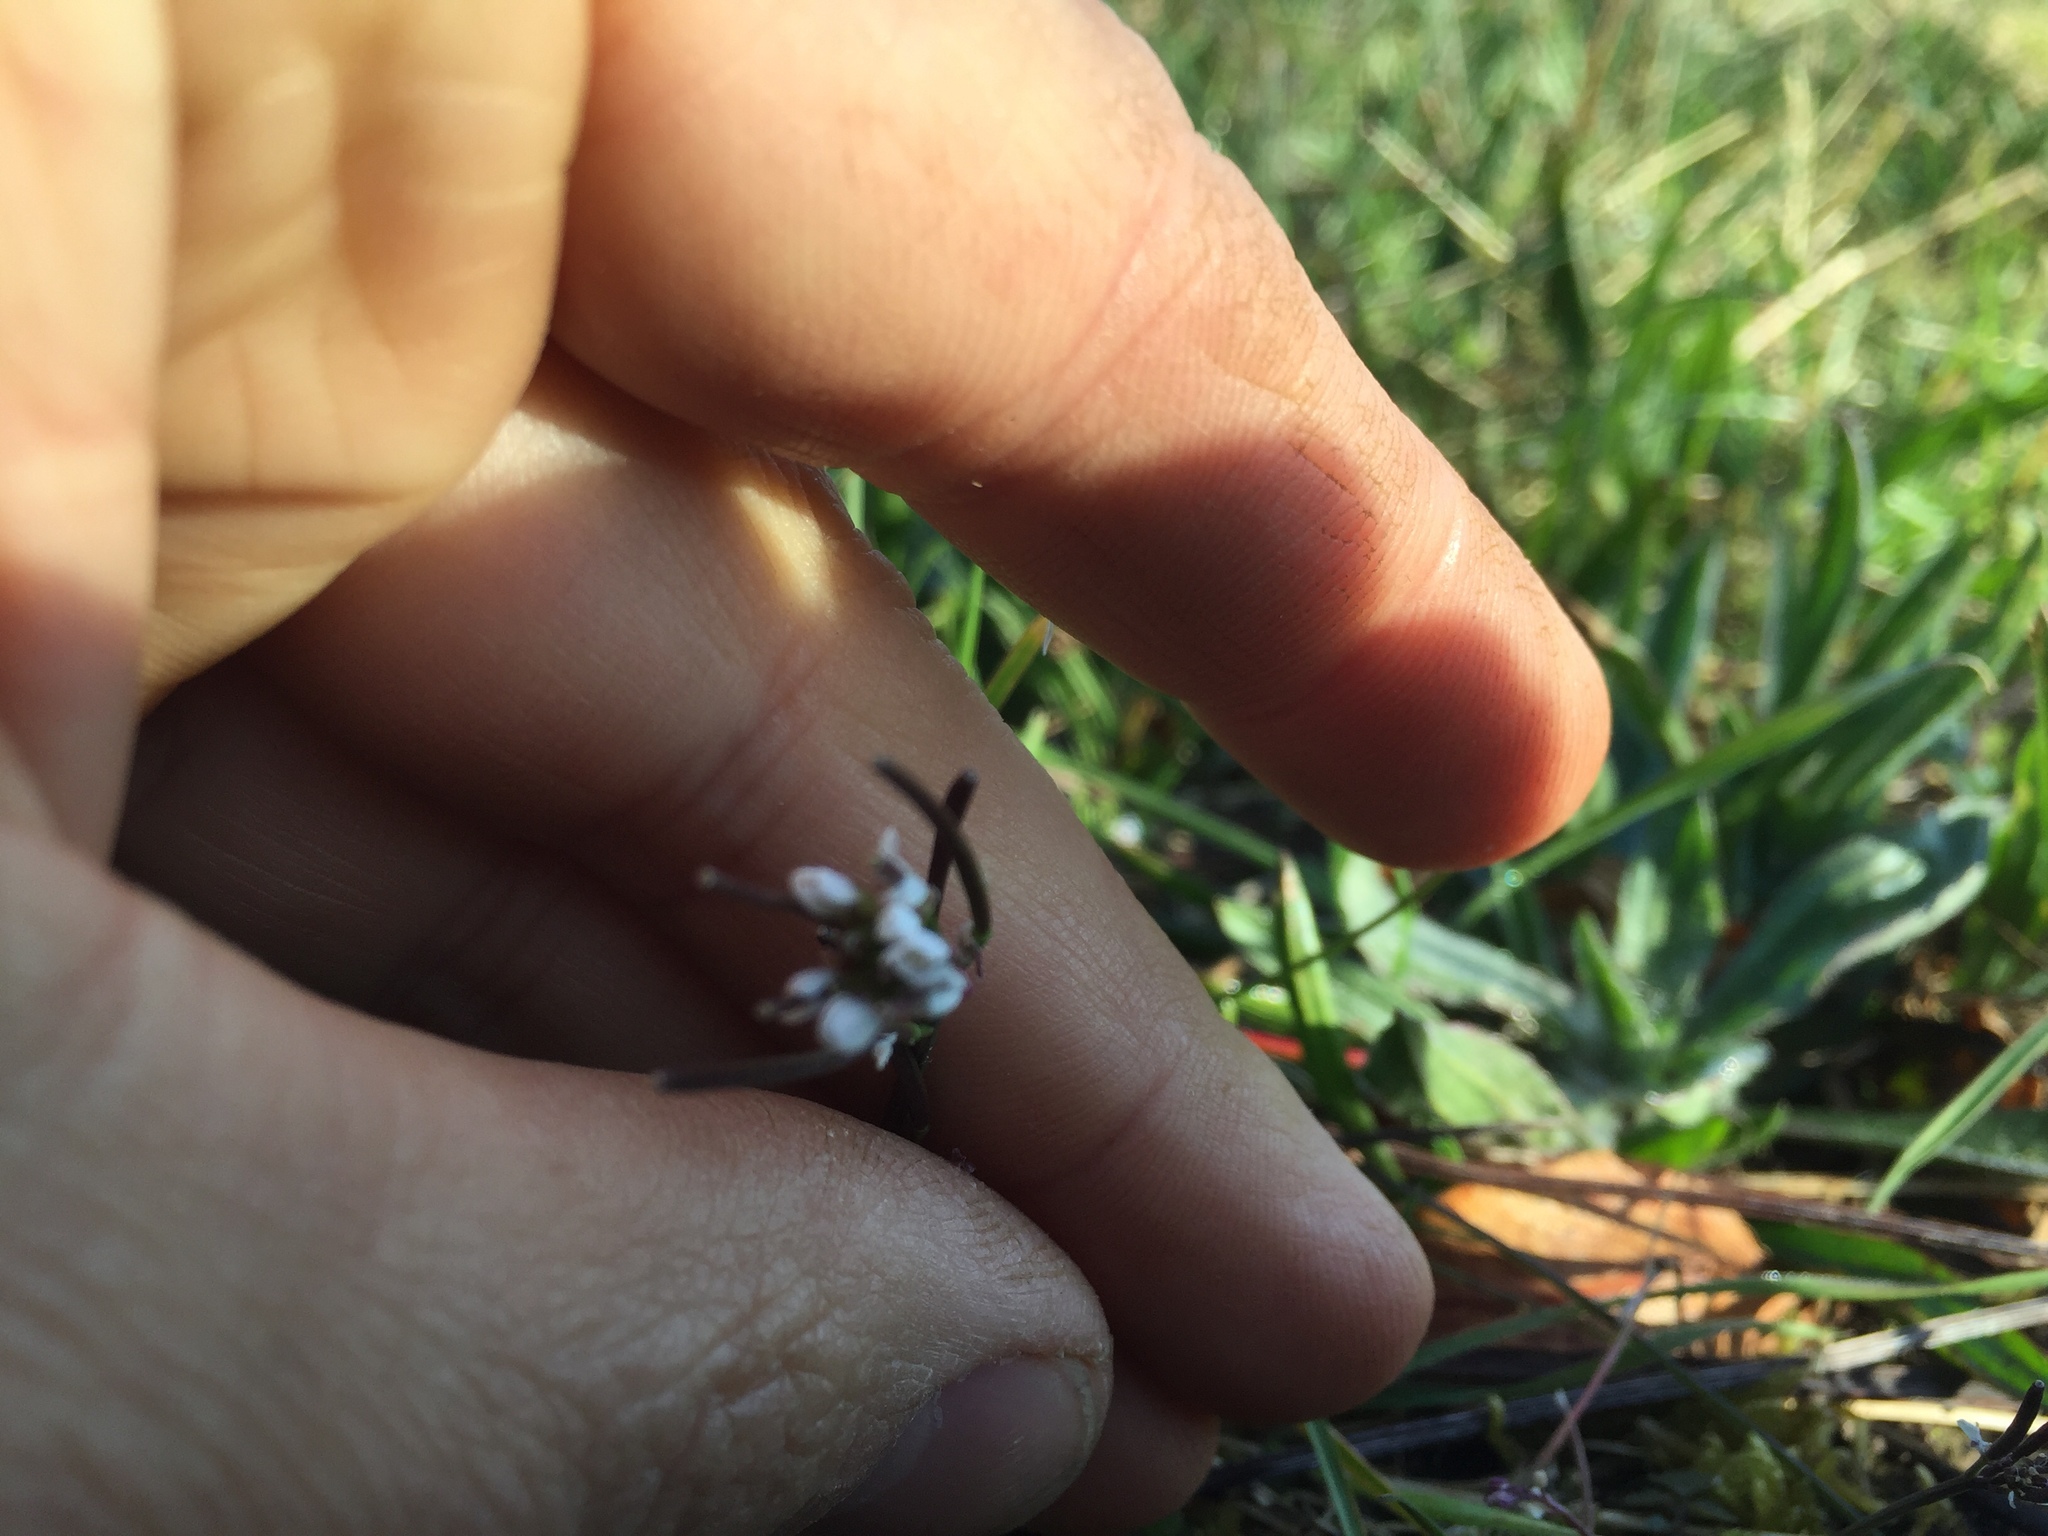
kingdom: Plantae
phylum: Tracheophyta
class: Magnoliopsida
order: Brassicales
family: Brassicaceae
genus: Cardamine
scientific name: Cardamine hirsuta
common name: Hairy bittercress
